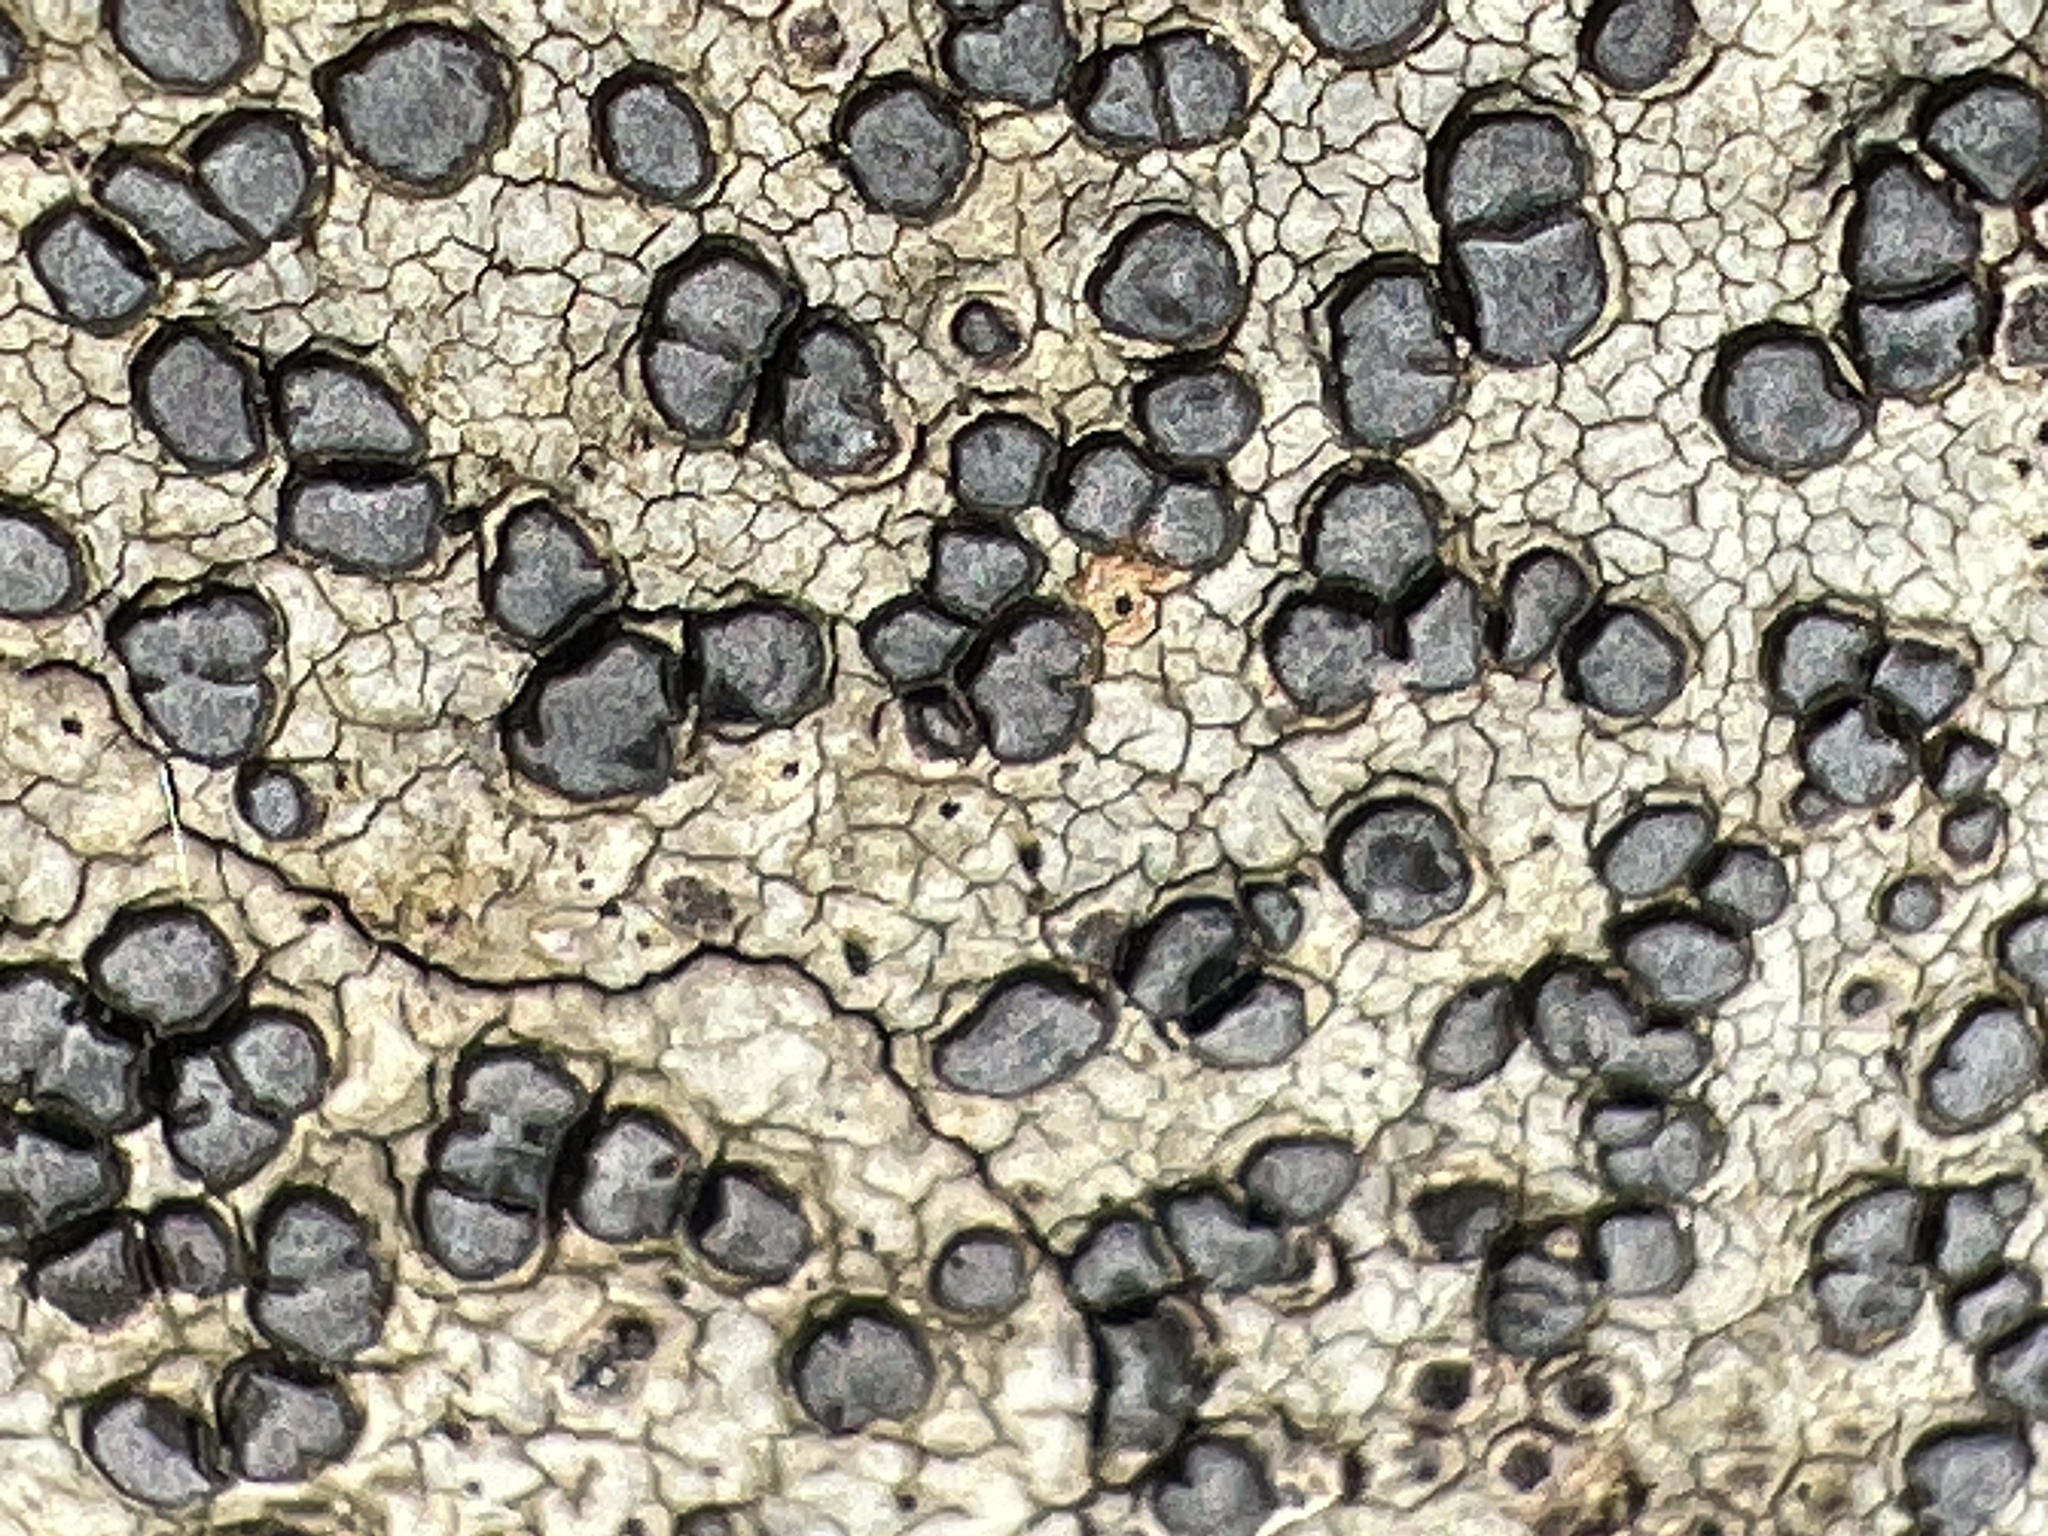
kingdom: Fungi
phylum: Ascomycota
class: Lecanoromycetes
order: Lecideales
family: Lecideaceae
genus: Porpidia
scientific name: Porpidia albocaerulescens
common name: Smokey-eyed boulder lichen
